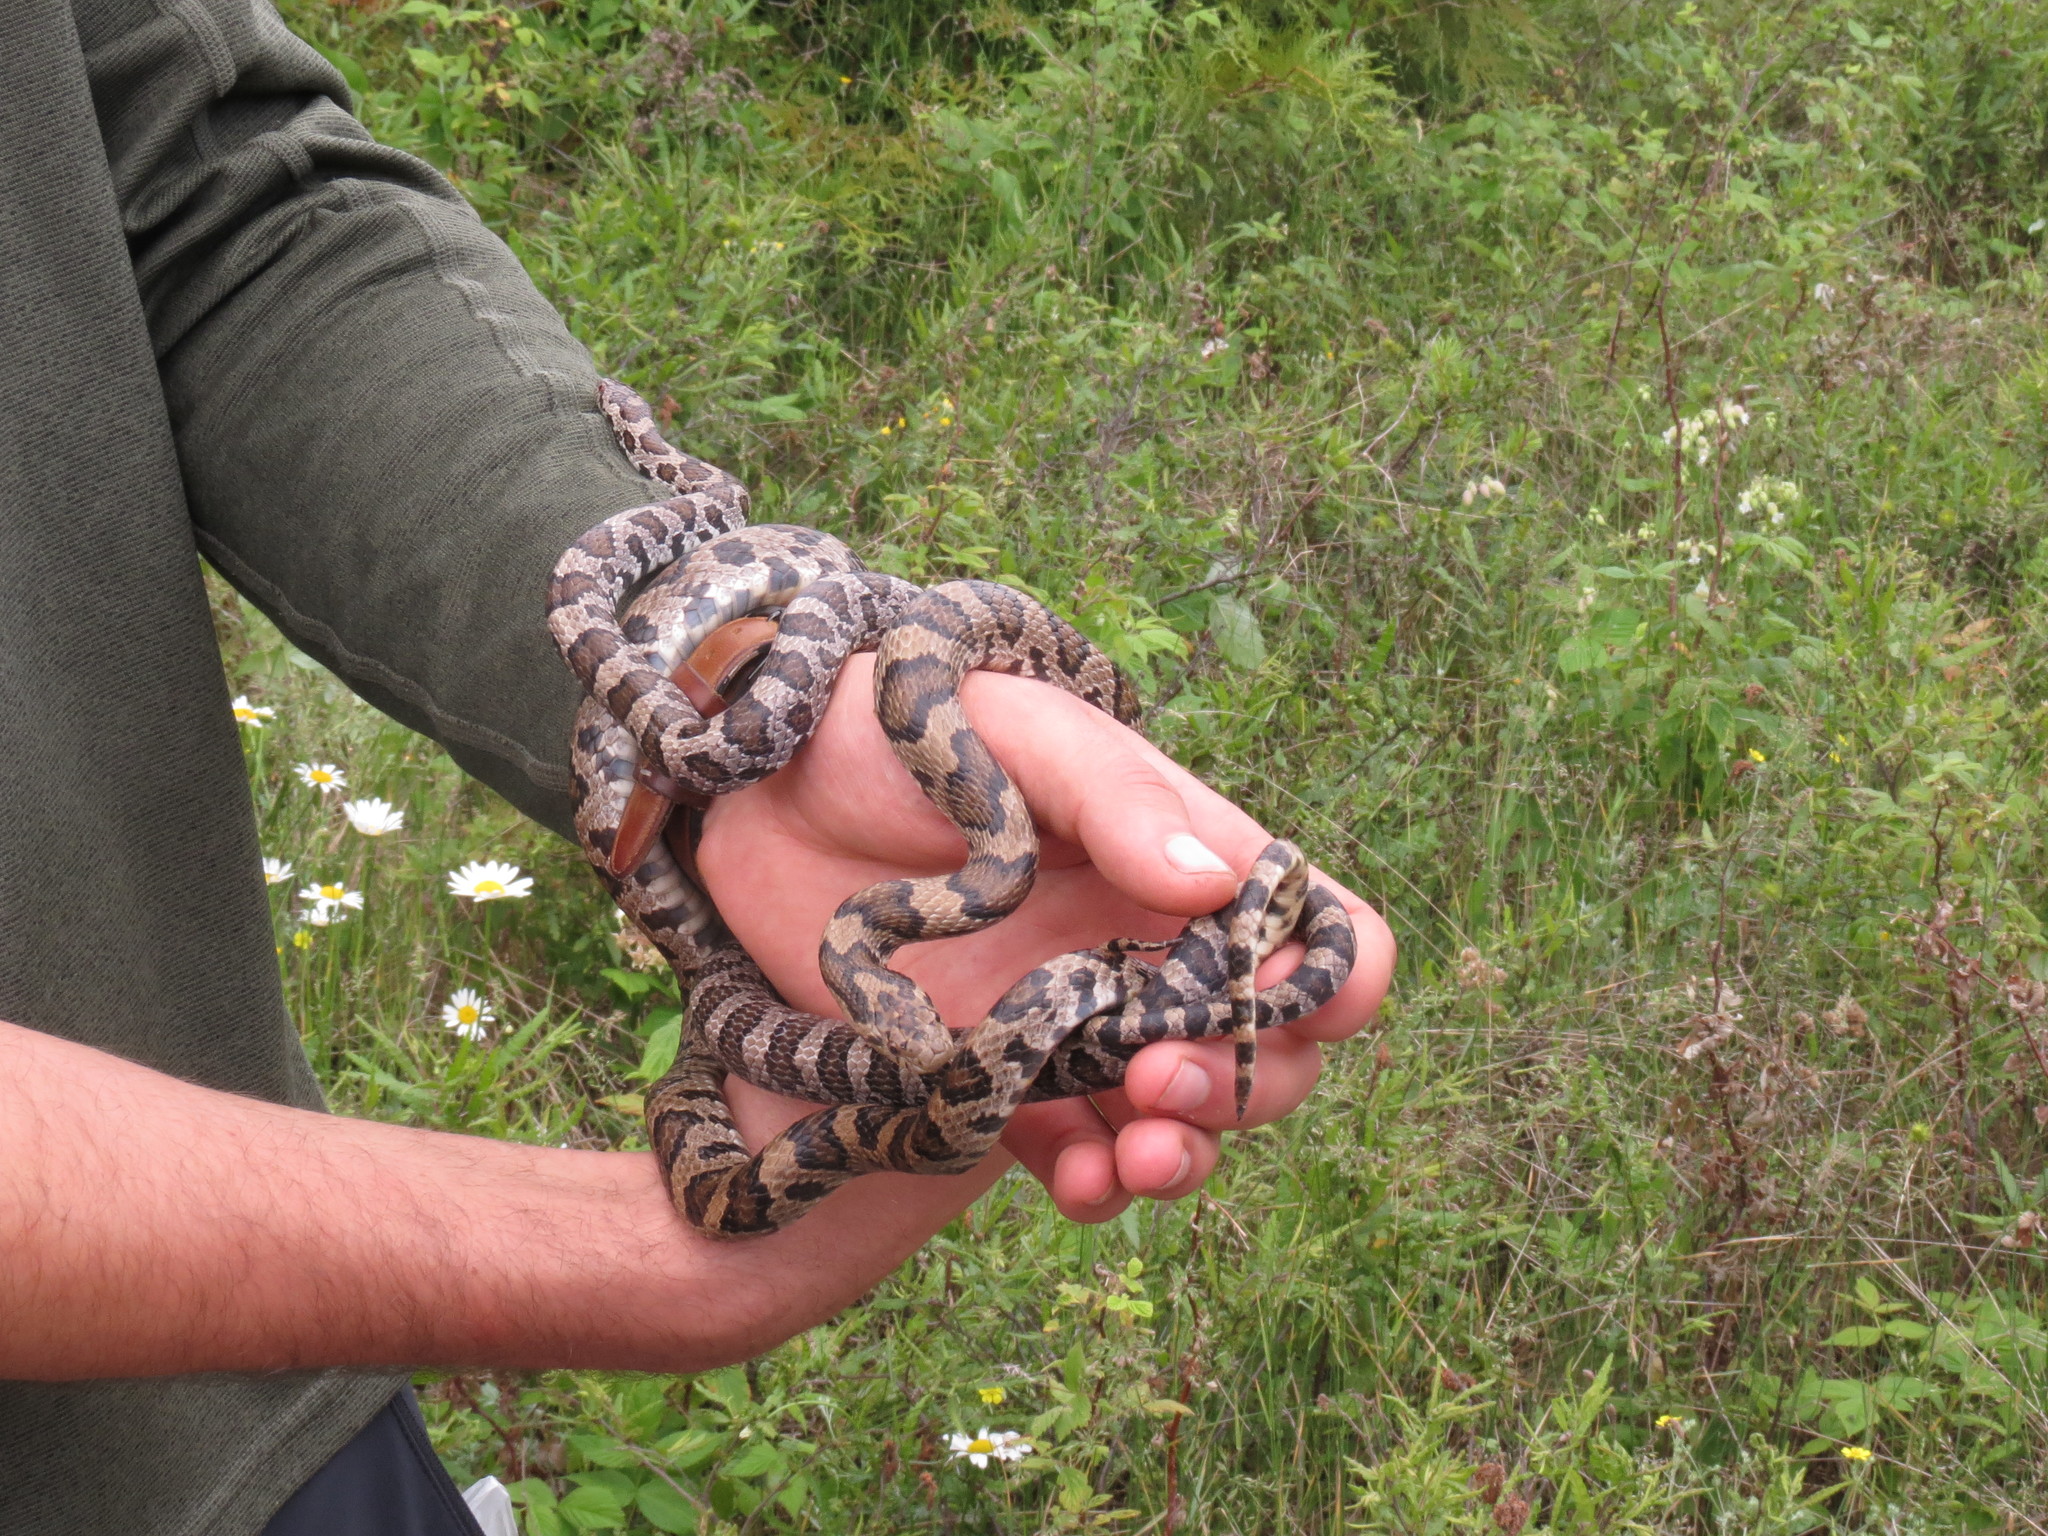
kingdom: Animalia
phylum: Chordata
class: Squamata
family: Colubridae
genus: Lampropeltis
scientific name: Lampropeltis triangulum
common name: Eastern milksnake
